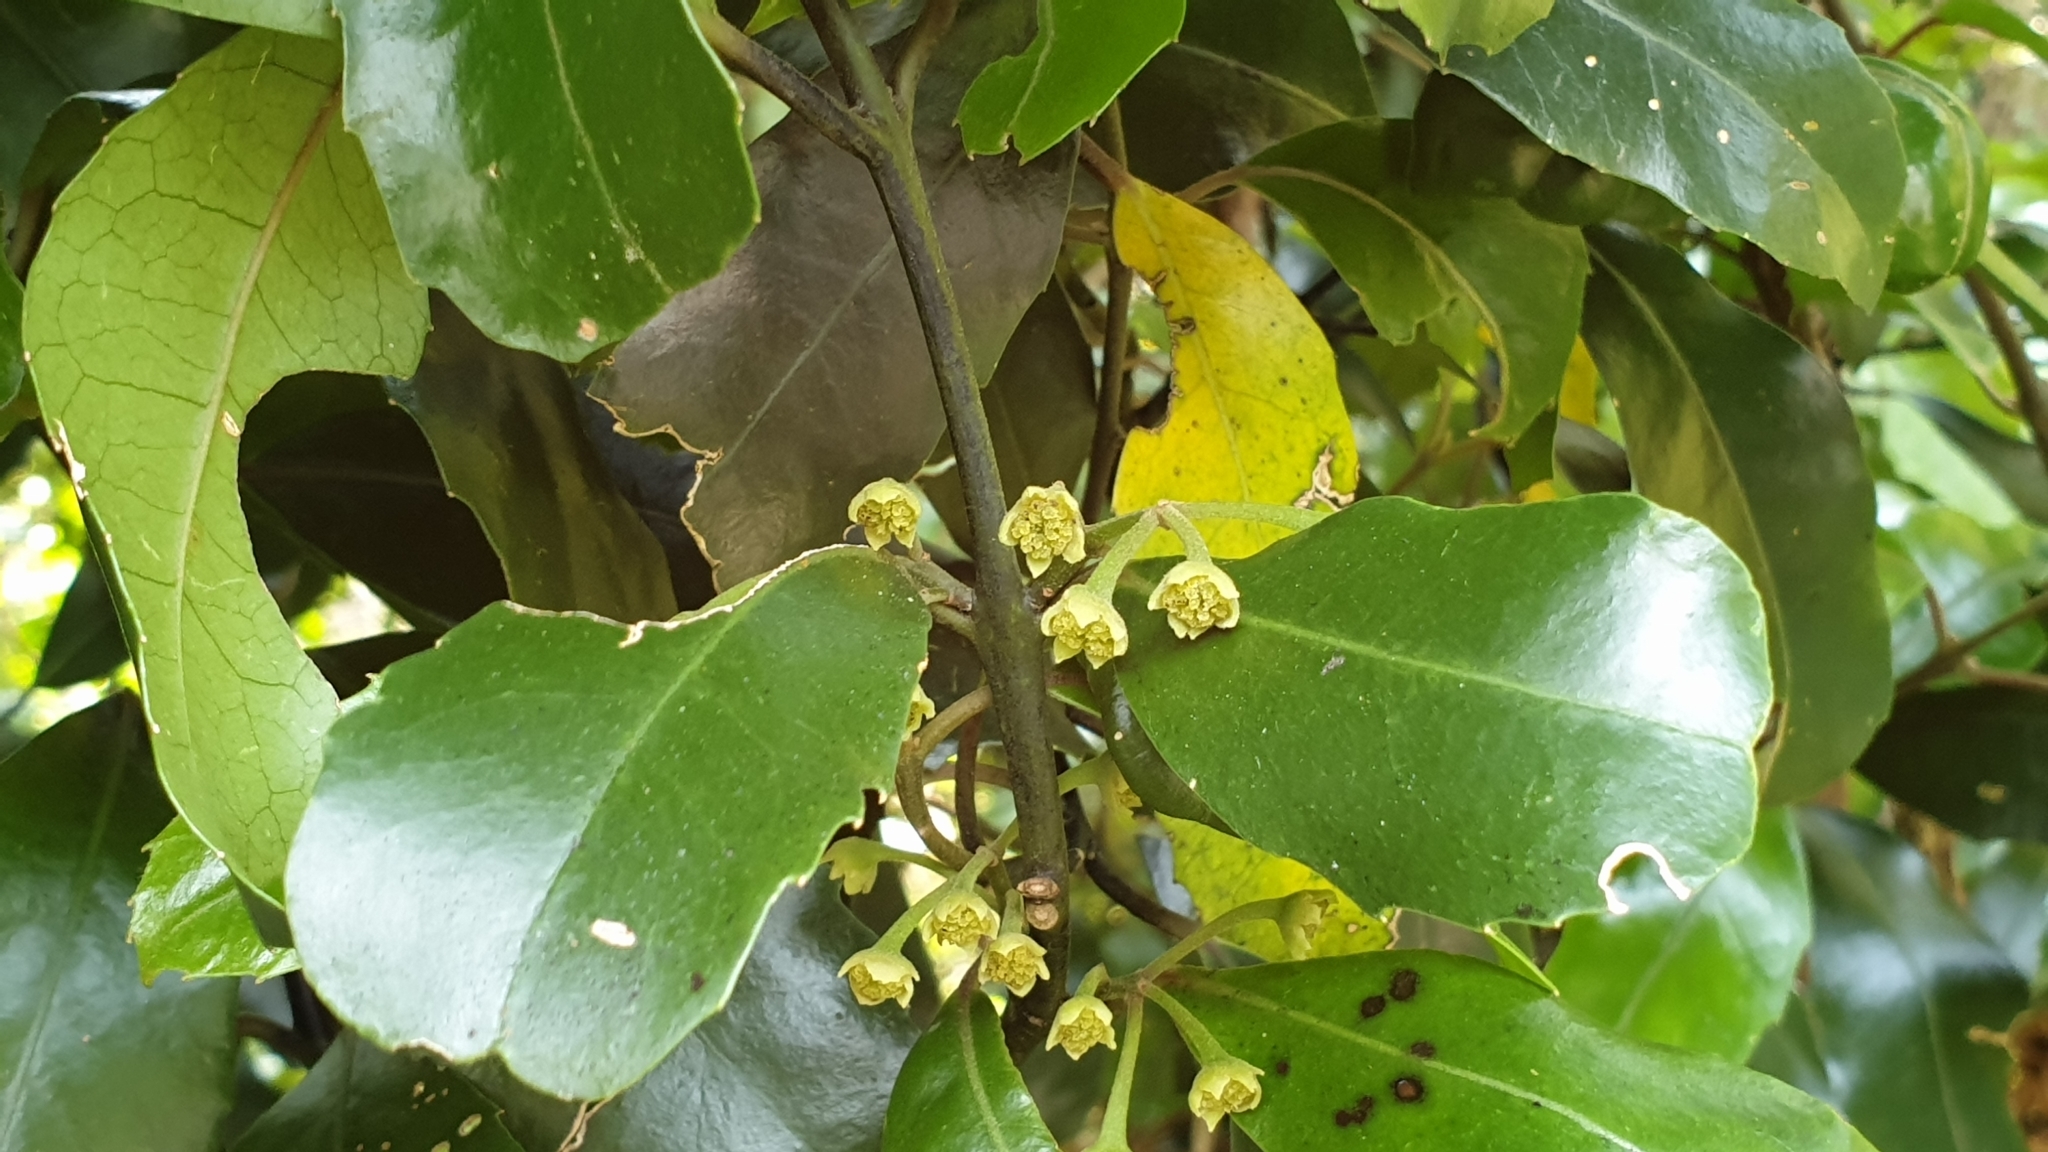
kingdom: Plantae
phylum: Tracheophyta
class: Magnoliopsida
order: Laurales
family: Monimiaceae
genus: Hedycarya
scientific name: Hedycarya arborea
